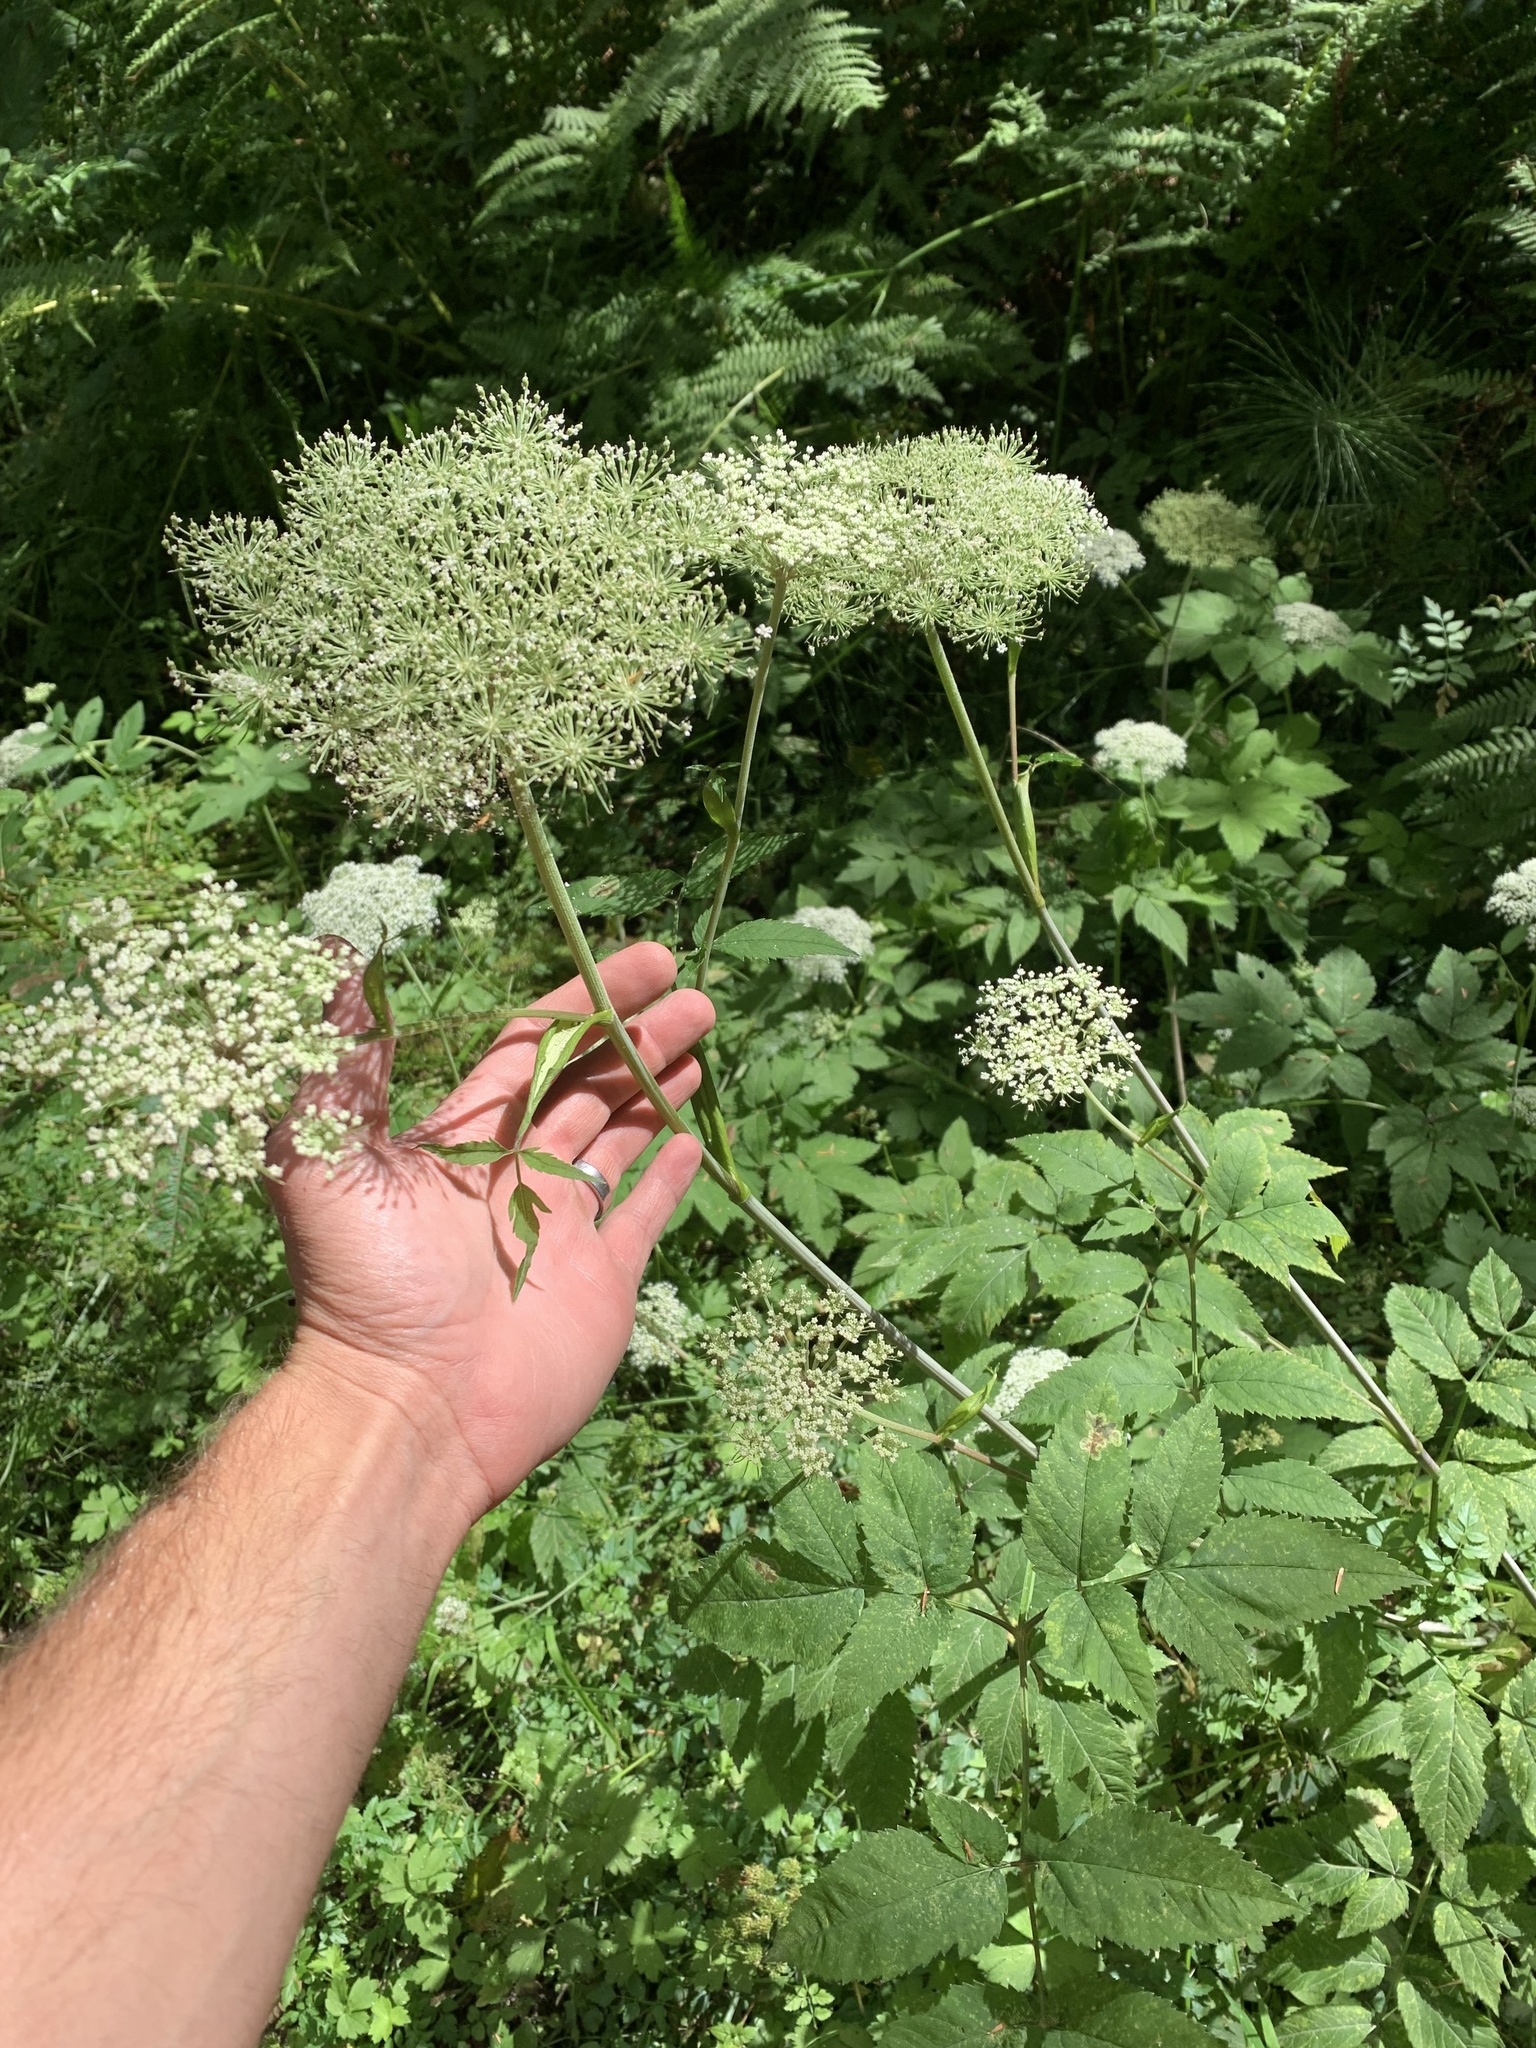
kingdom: Plantae
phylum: Tracheophyta
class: Magnoliopsida
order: Apiales
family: Apiaceae
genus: Angelica
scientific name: Angelica genuflexa
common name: Kneeling angelica
